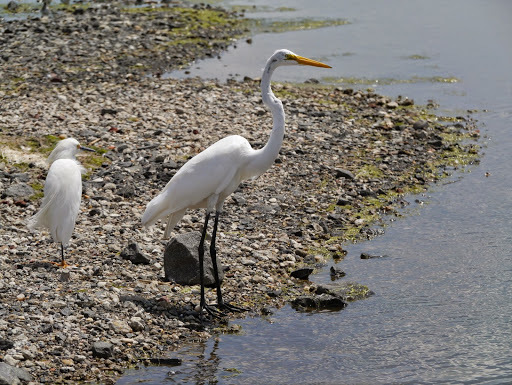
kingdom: Animalia
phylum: Chordata
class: Aves
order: Pelecaniformes
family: Ardeidae
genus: Ardea
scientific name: Ardea alba
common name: Great egret
